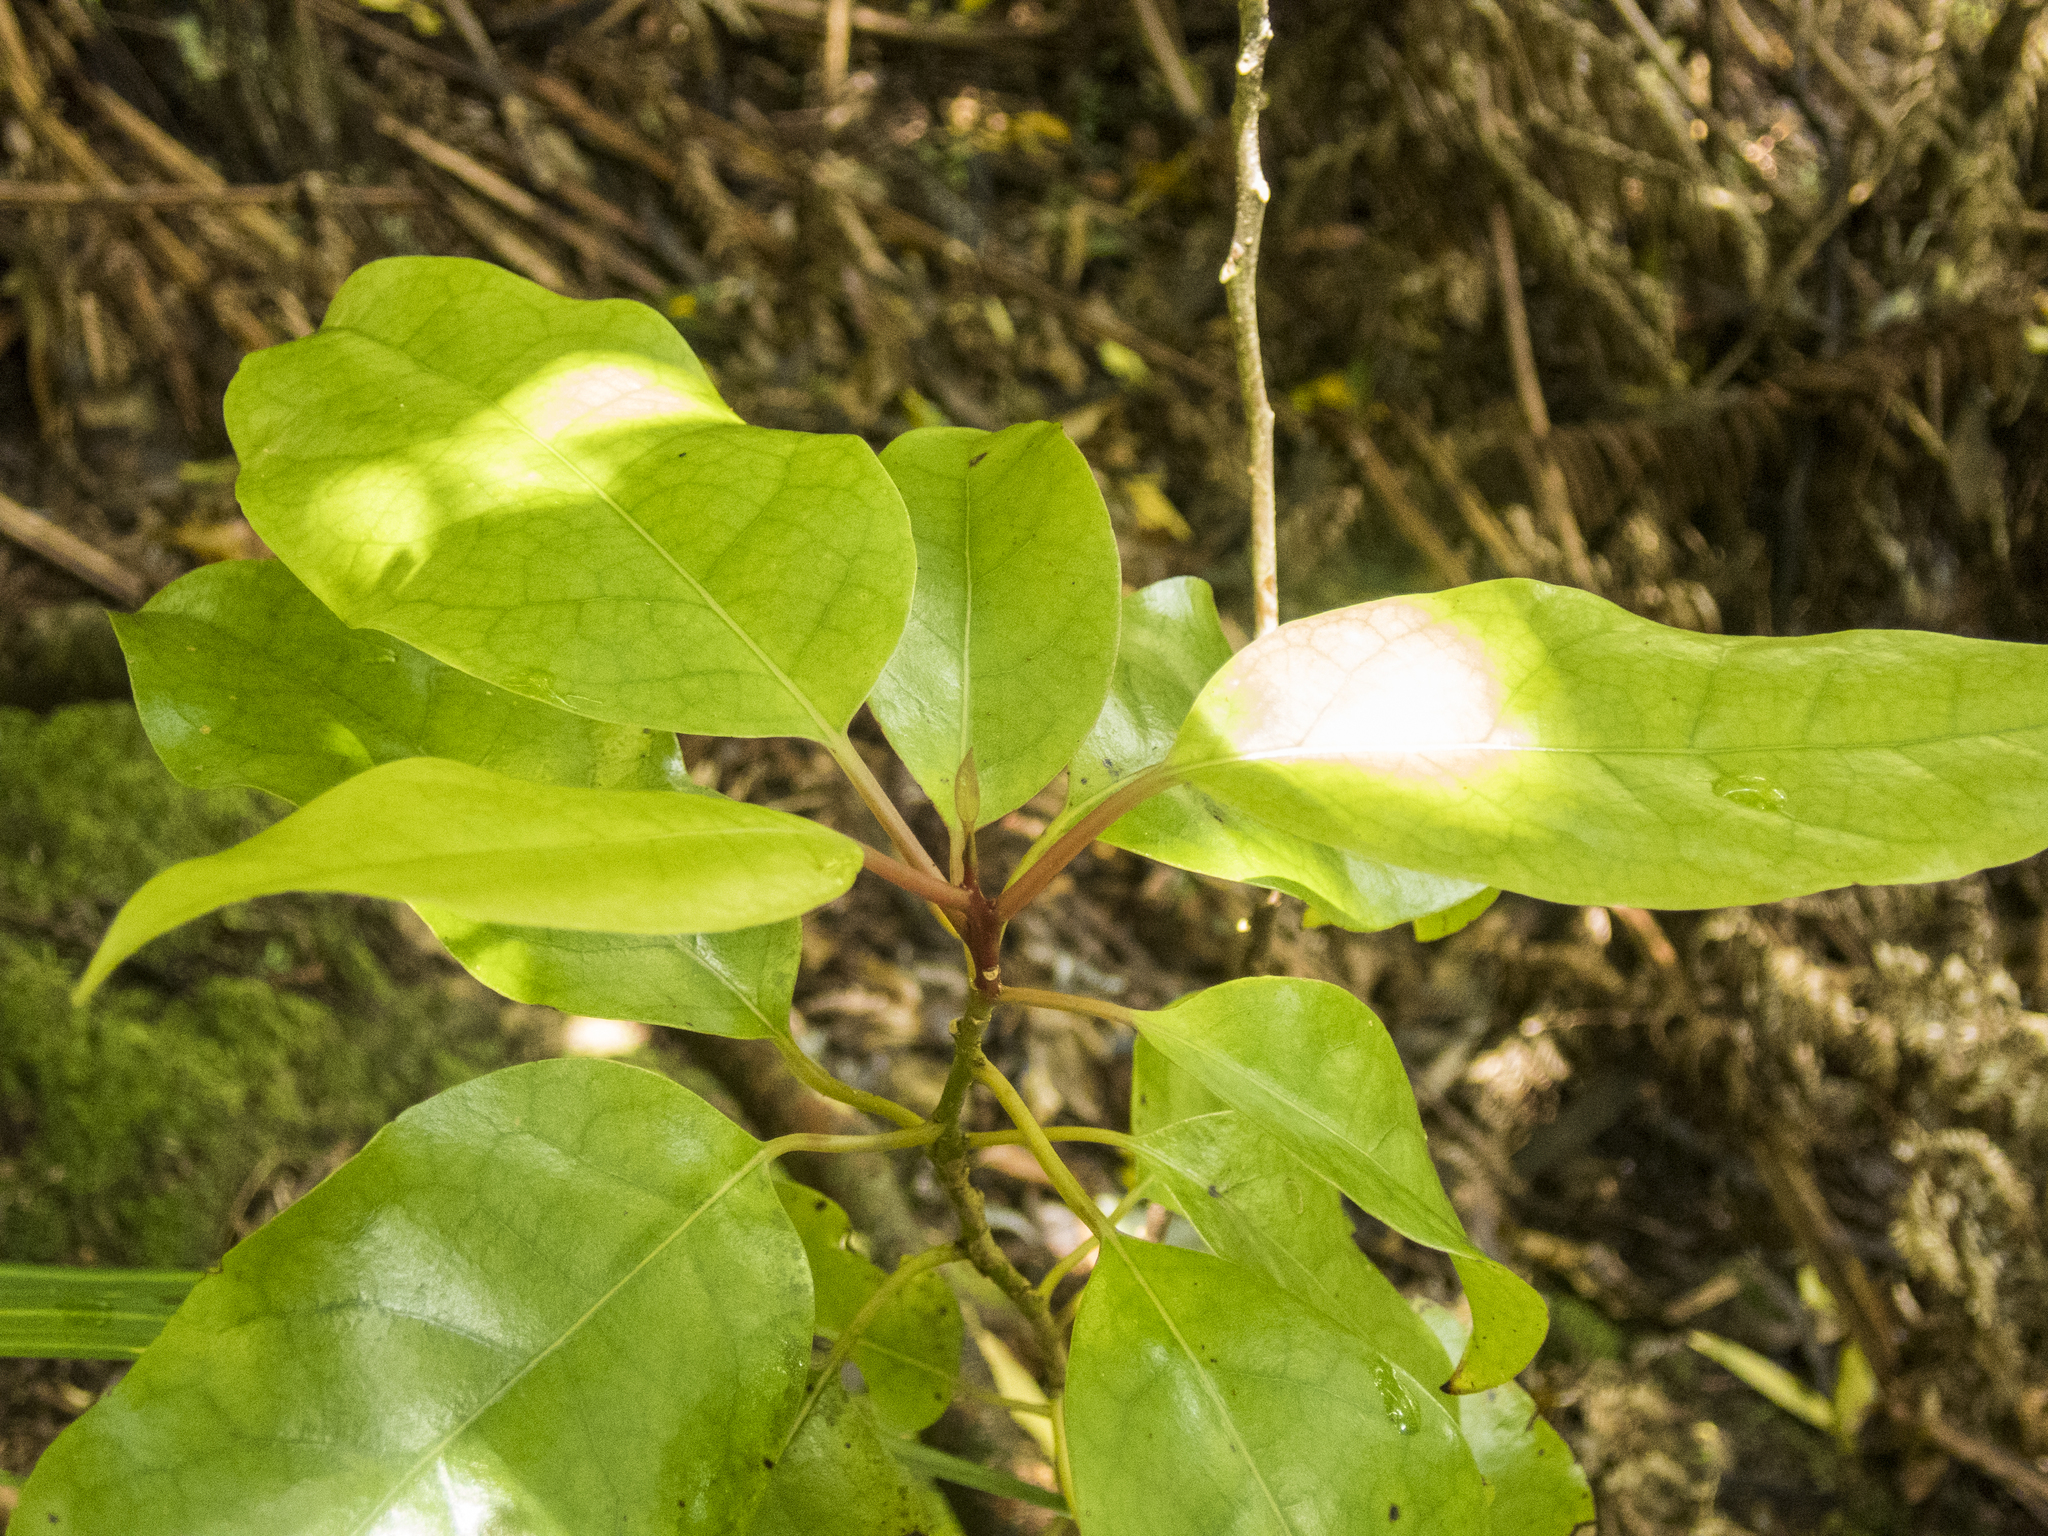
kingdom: Plantae
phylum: Tracheophyta
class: Magnoliopsida
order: Laurales
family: Lauraceae
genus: Litsea
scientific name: Litsea calicaris
